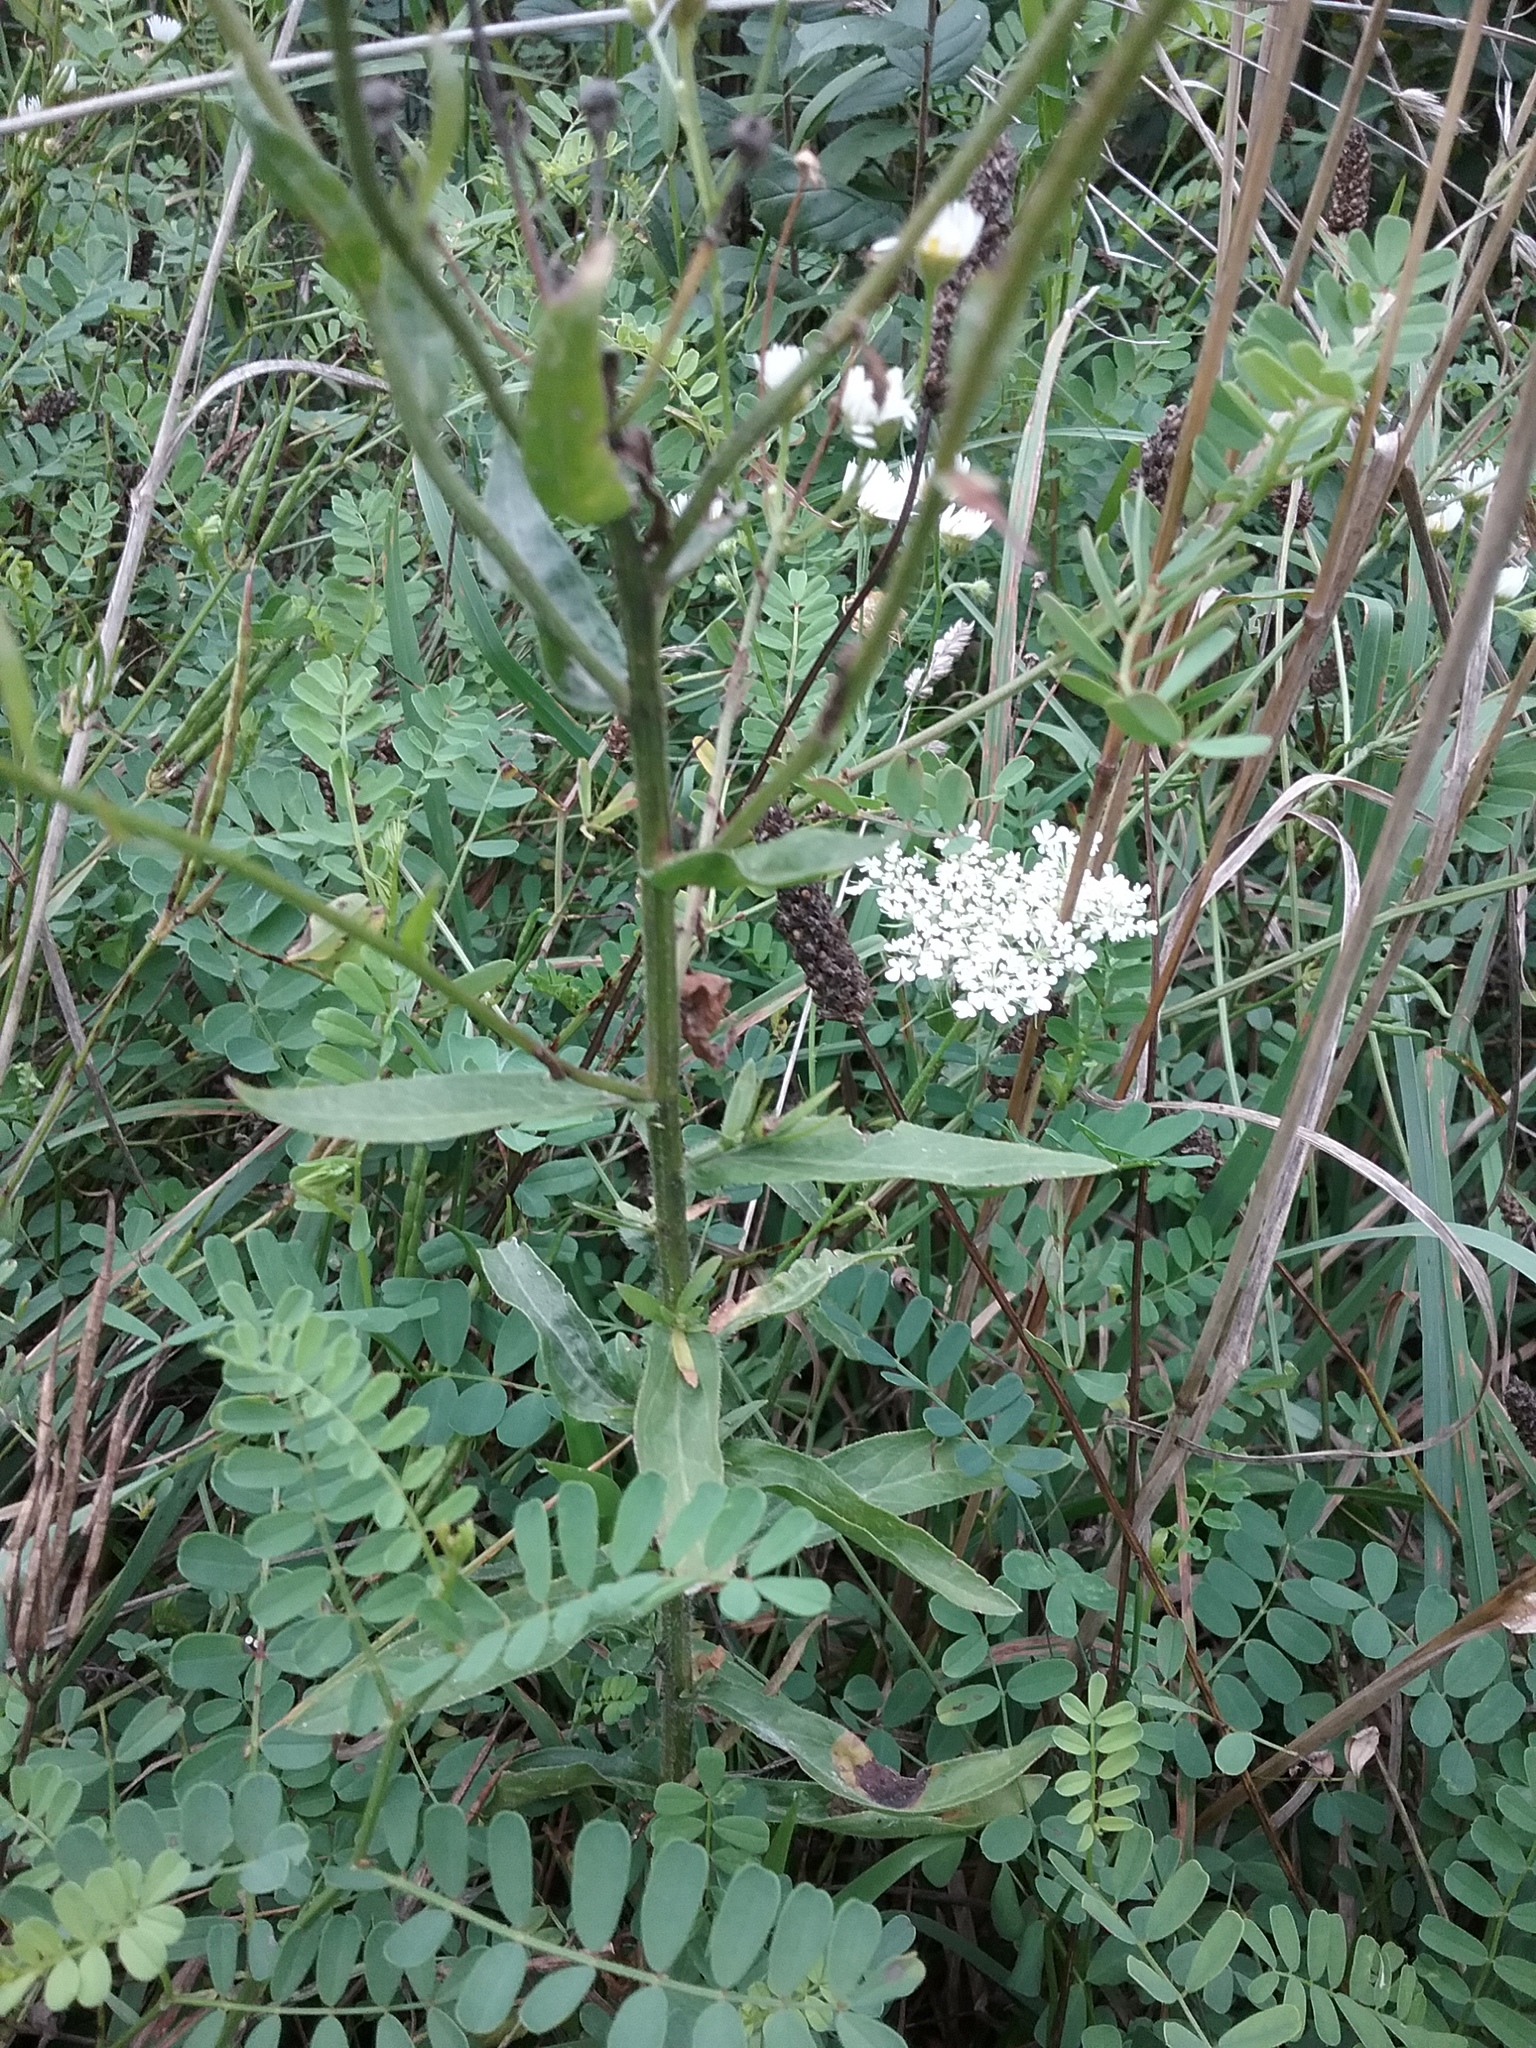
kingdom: Plantae
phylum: Tracheophyta
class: Magnoliopsida
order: Asterales
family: Asteraceae
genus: Erigeron
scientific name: Erigeron strigosus
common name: Common eastern fleabane
